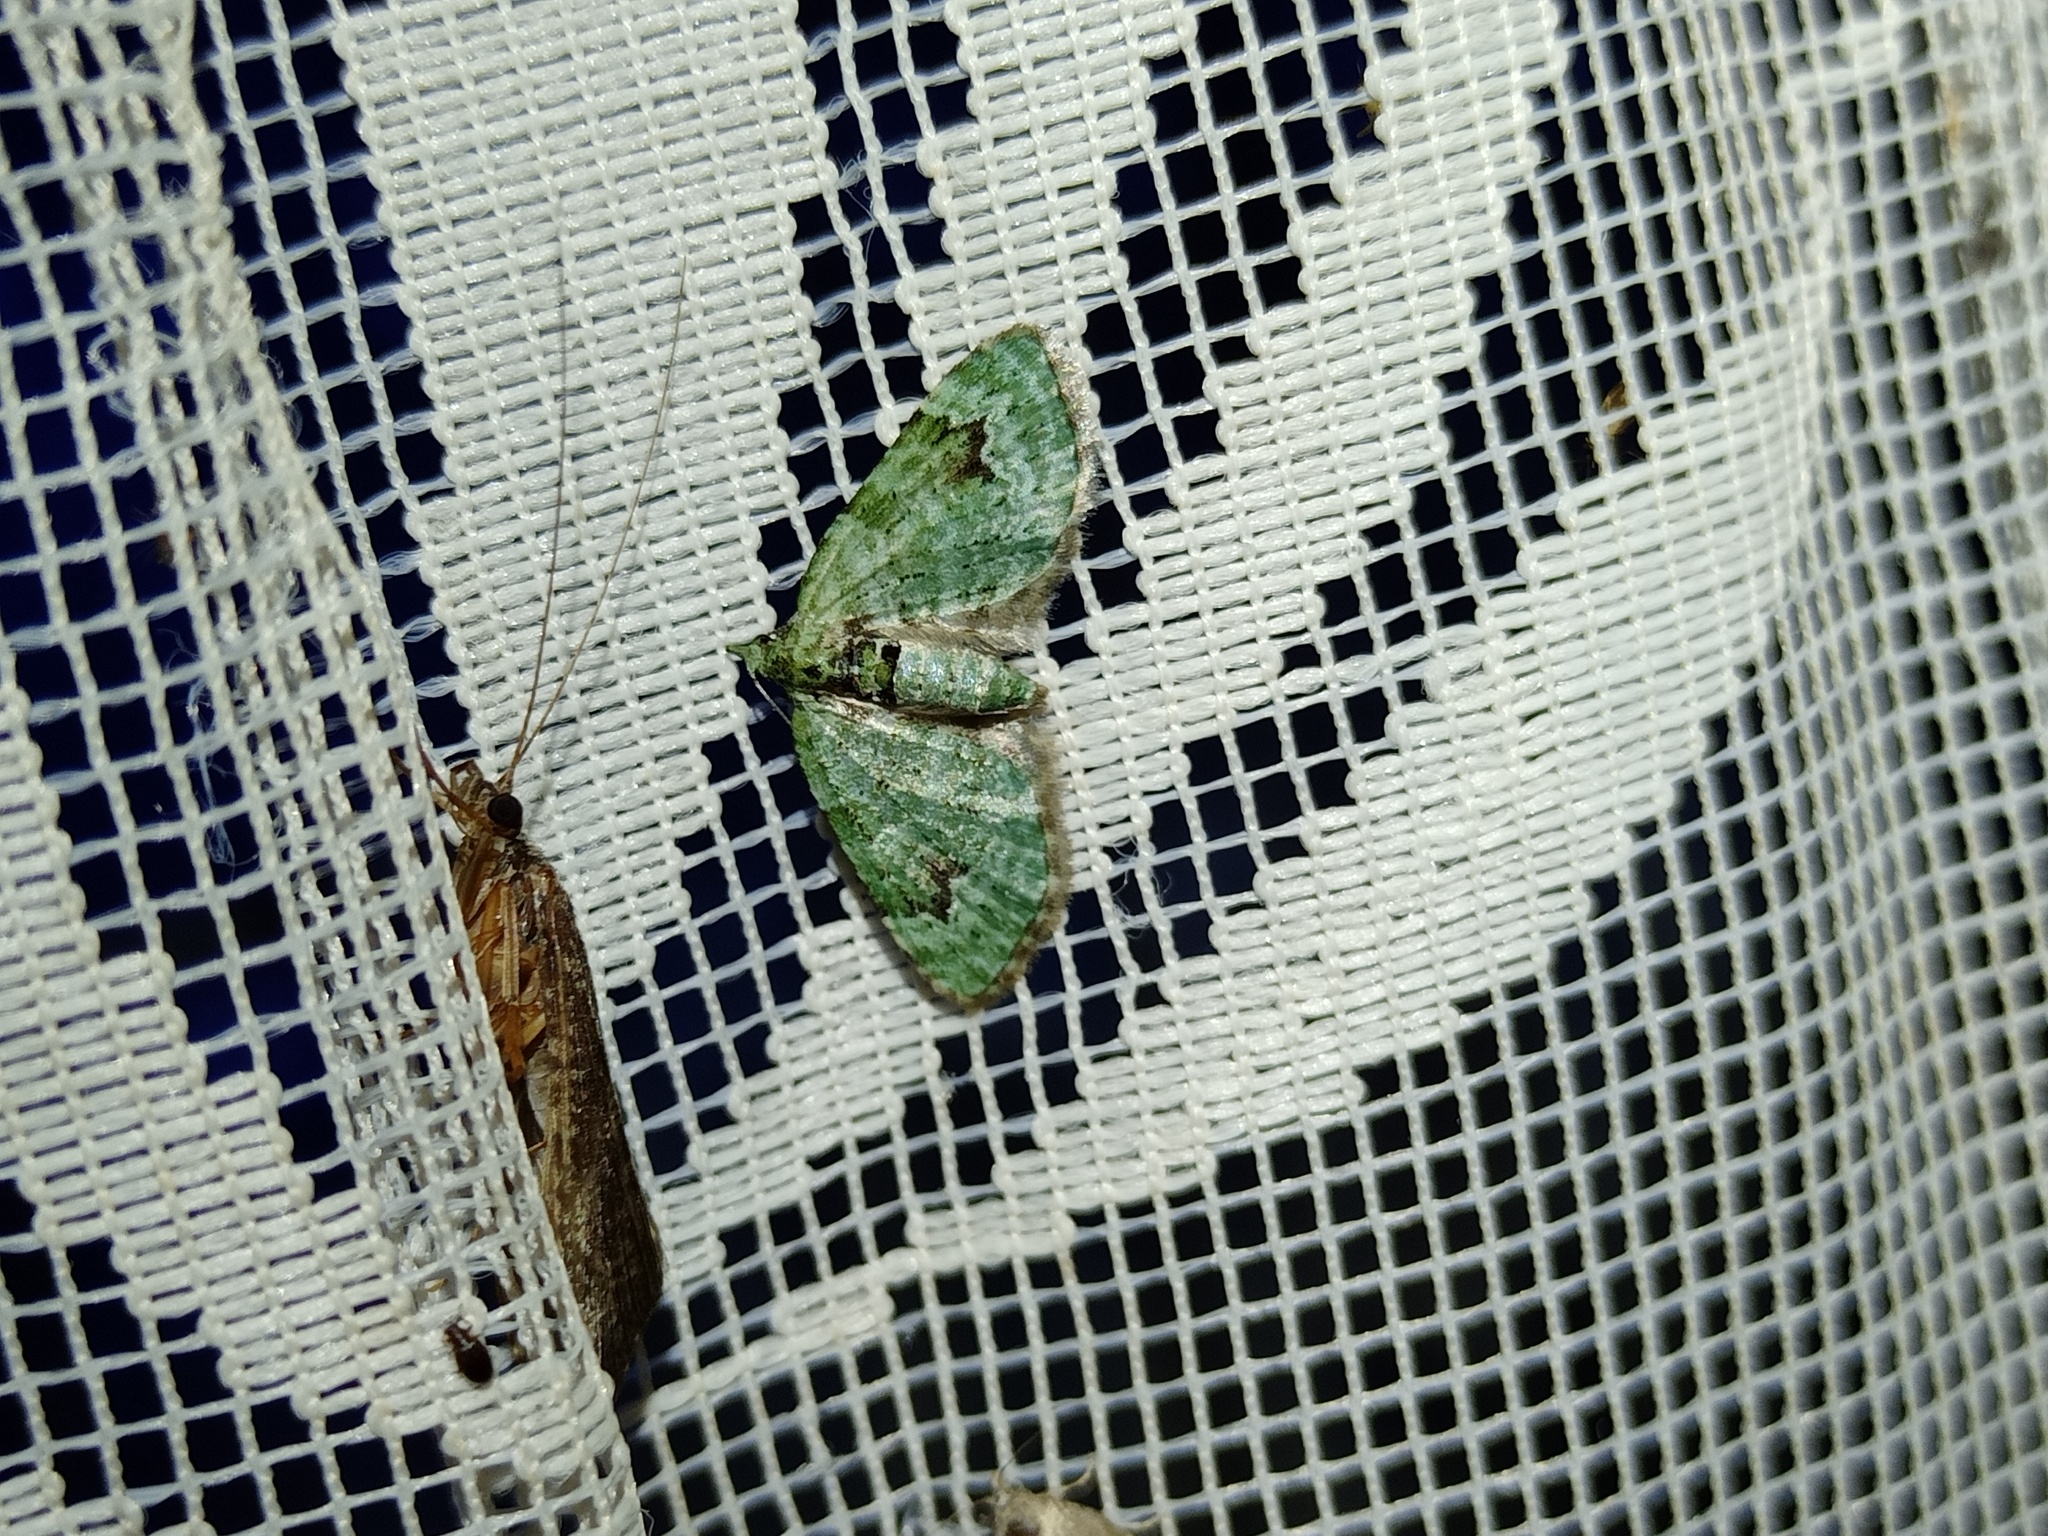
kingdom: Animalia
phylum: Arthropoda
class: Insecta
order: Lepidoptera
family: Geometridae
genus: Chloroclystis
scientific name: Chloroclystis v-ata
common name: V-pug
